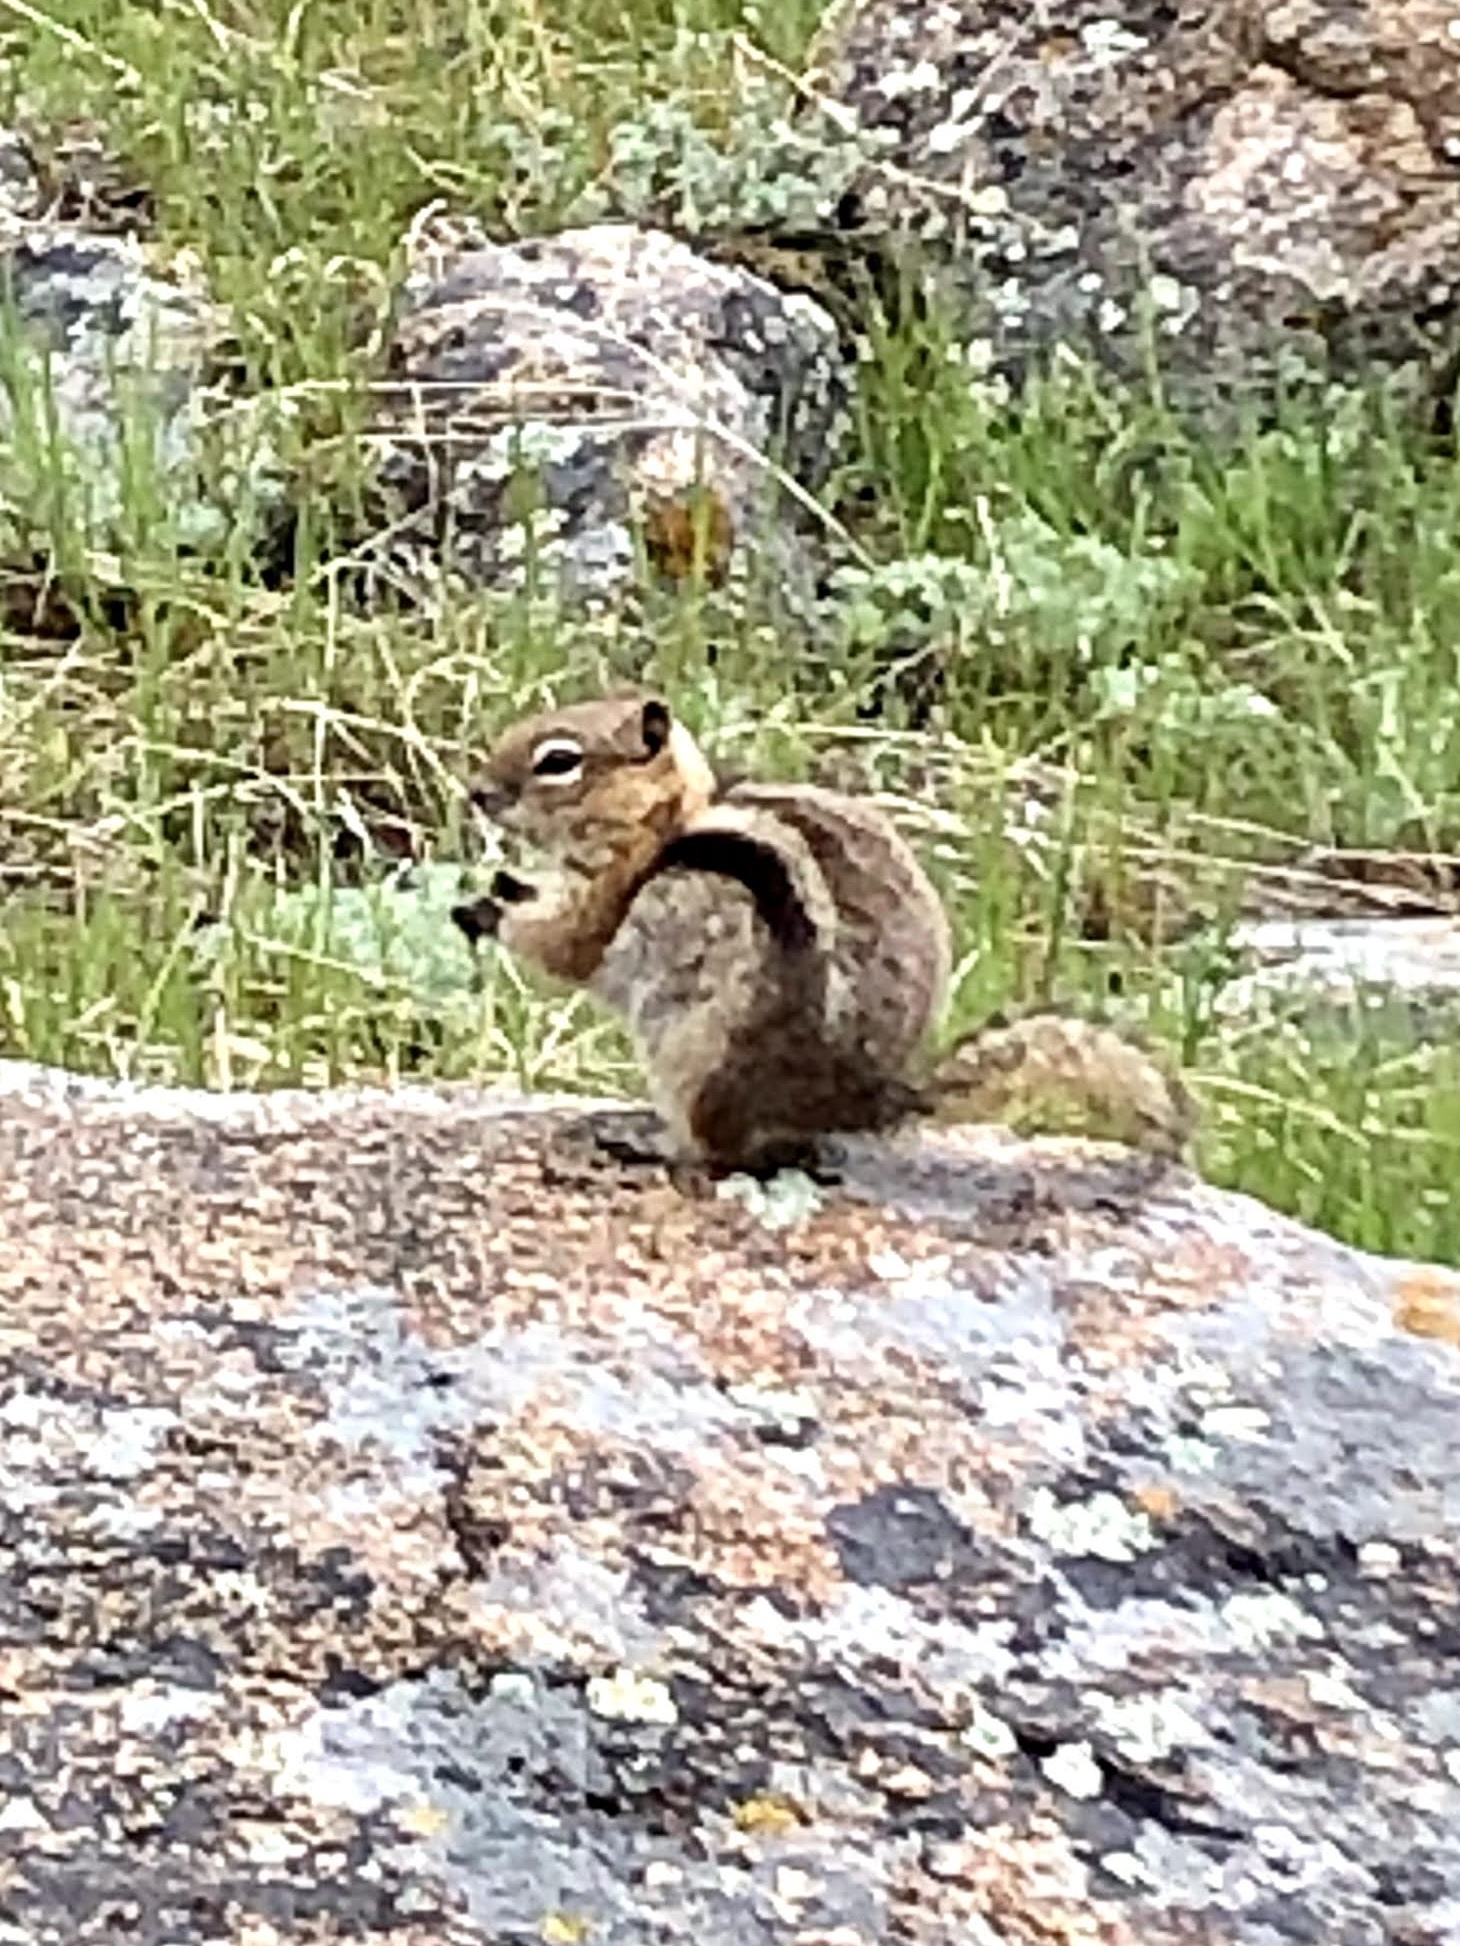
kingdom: Animalia
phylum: Chordata
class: Mammalia
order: Rodentia
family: Sciuridae
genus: Callospermophilus
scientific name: Callospermophilus lateralis
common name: Golden-mantled ground squirrel
